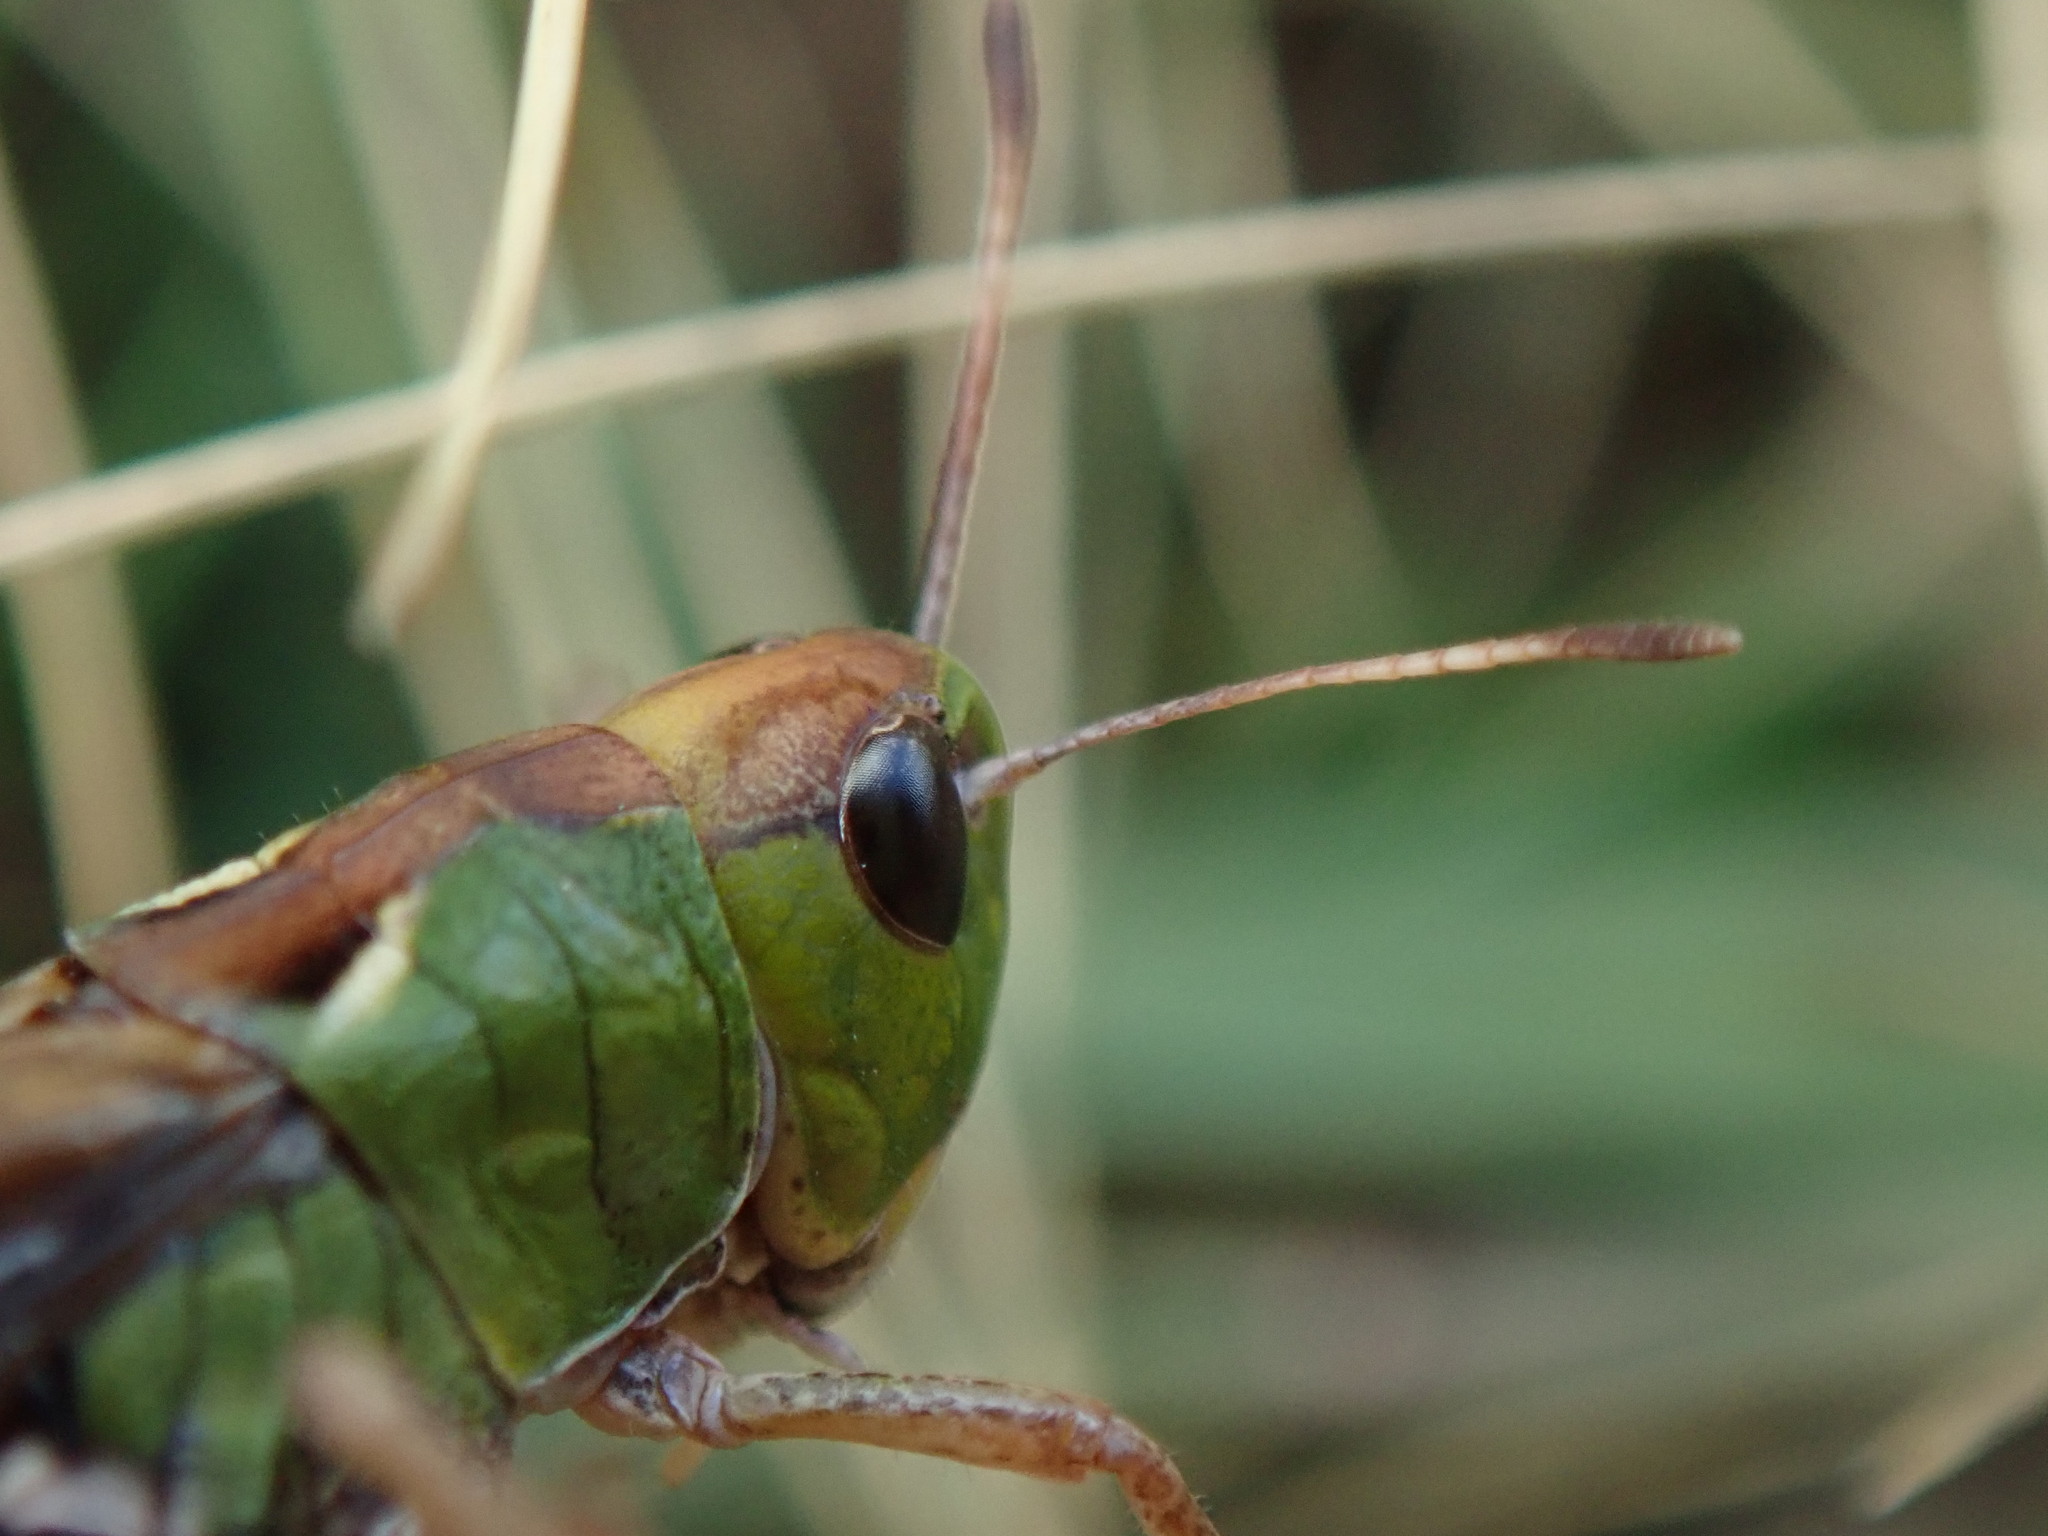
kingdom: Animalia
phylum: Arthropoda
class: Insecta
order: Orthoptera
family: Acrididae
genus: Gomphocerus
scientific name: Gomphocerus sibiricus
